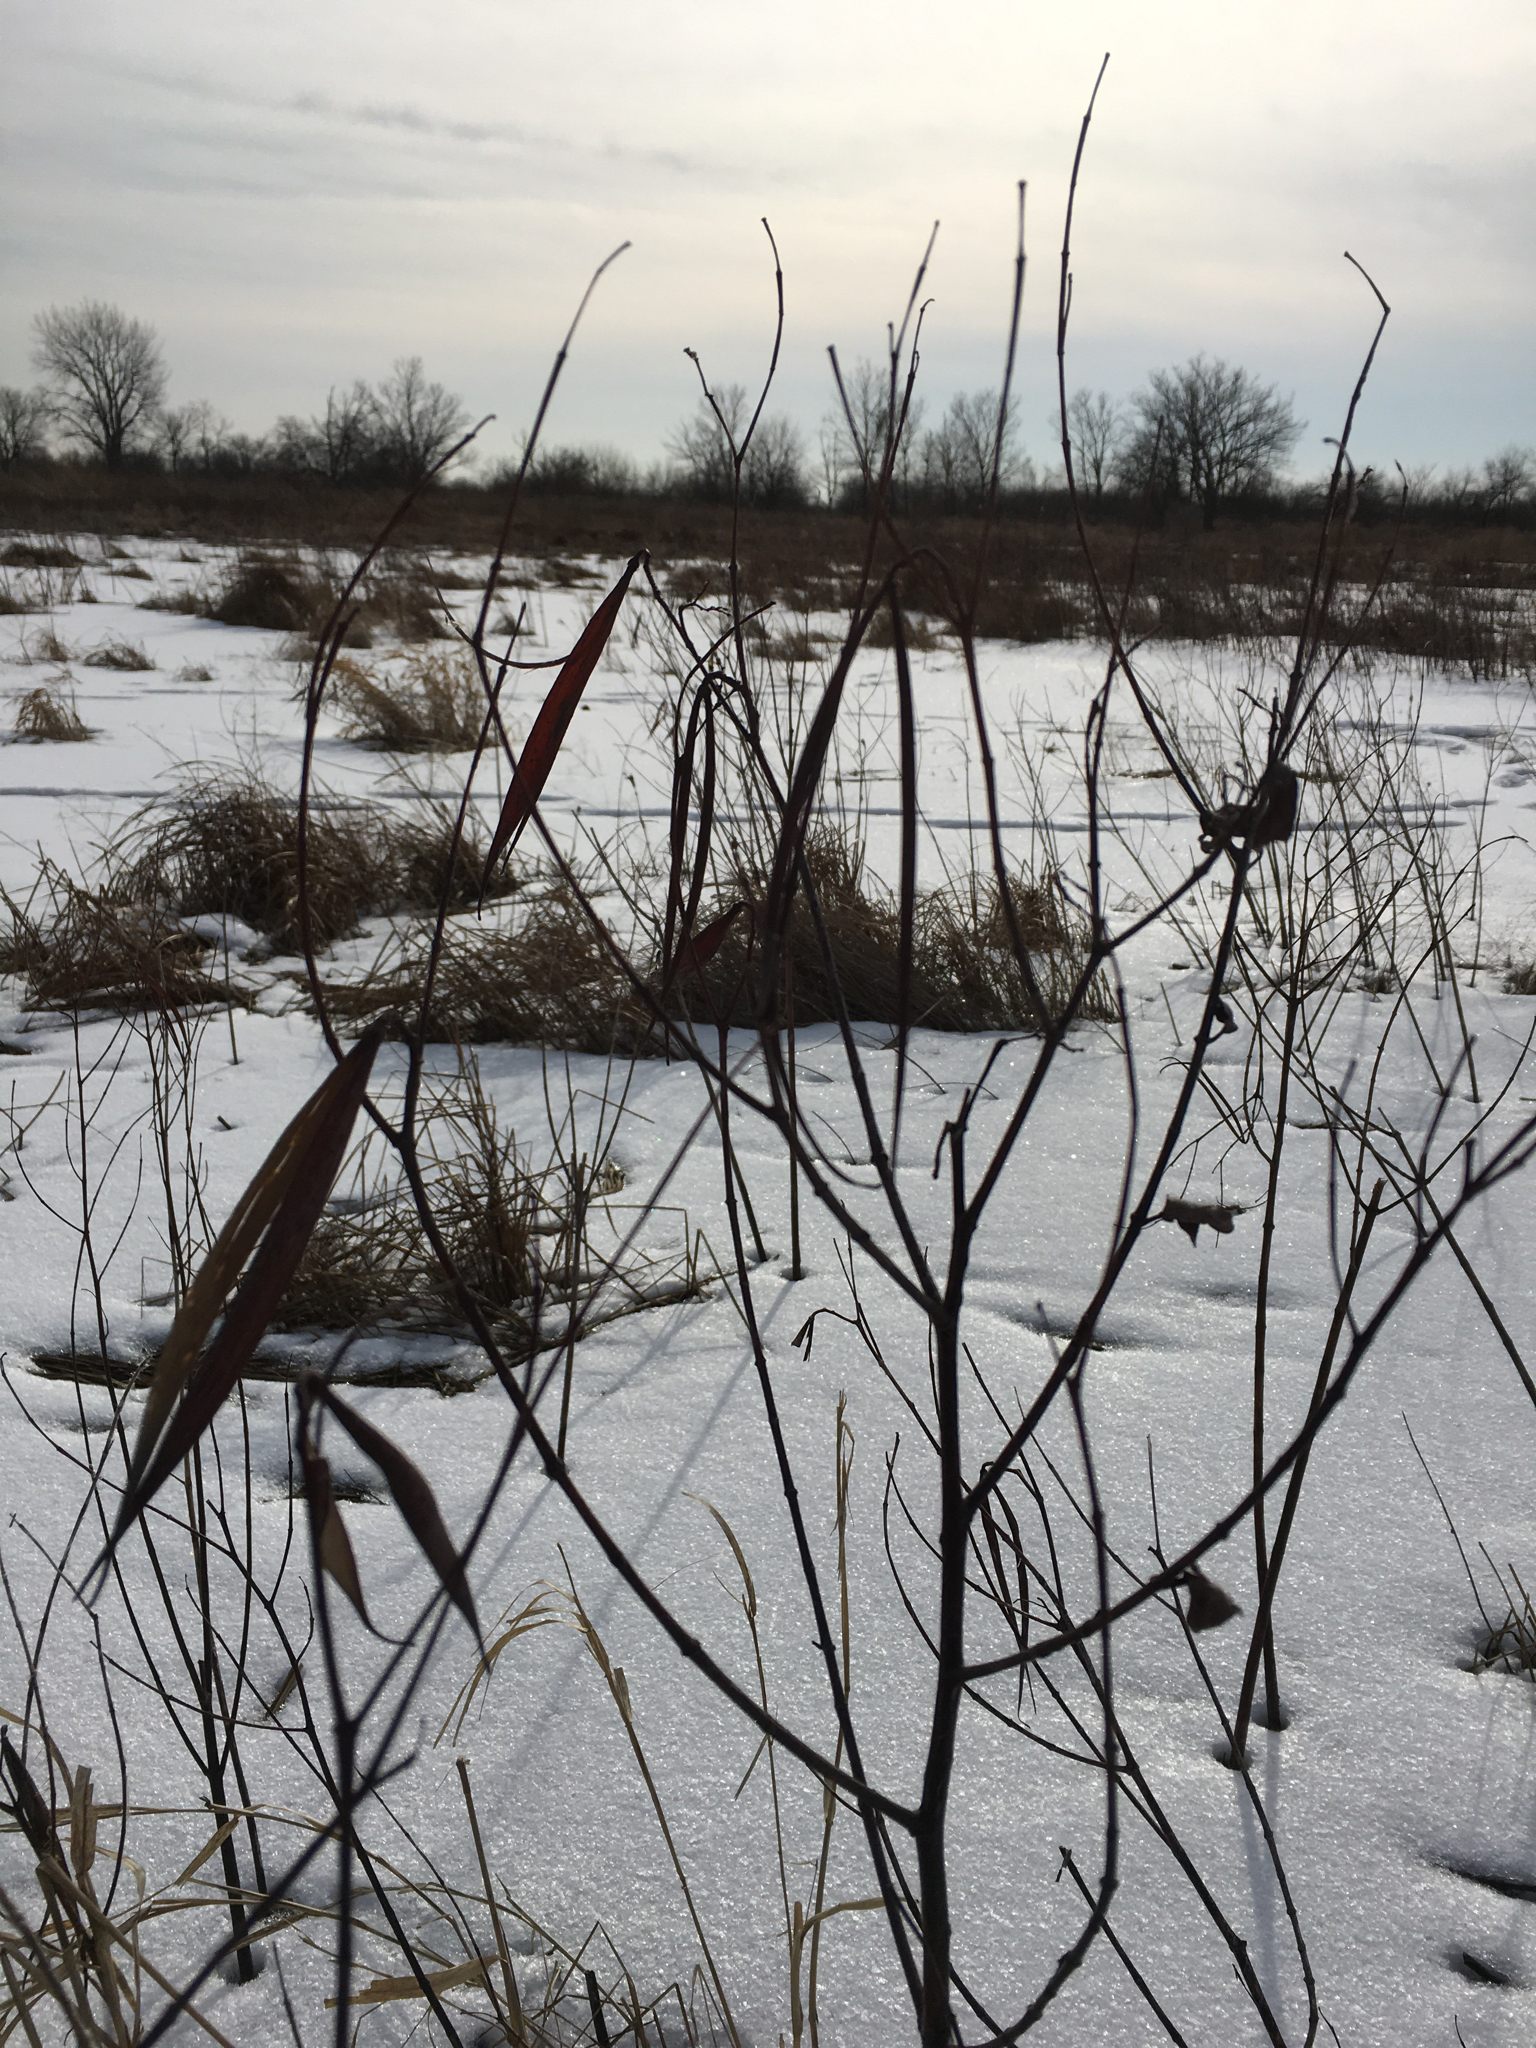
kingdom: Plantae
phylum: Tracheophyta
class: Magnoliopsida
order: Gentianales
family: Apocynaceae
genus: Apocynum
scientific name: Apocynum cannabinum
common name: Hemp dogbane
